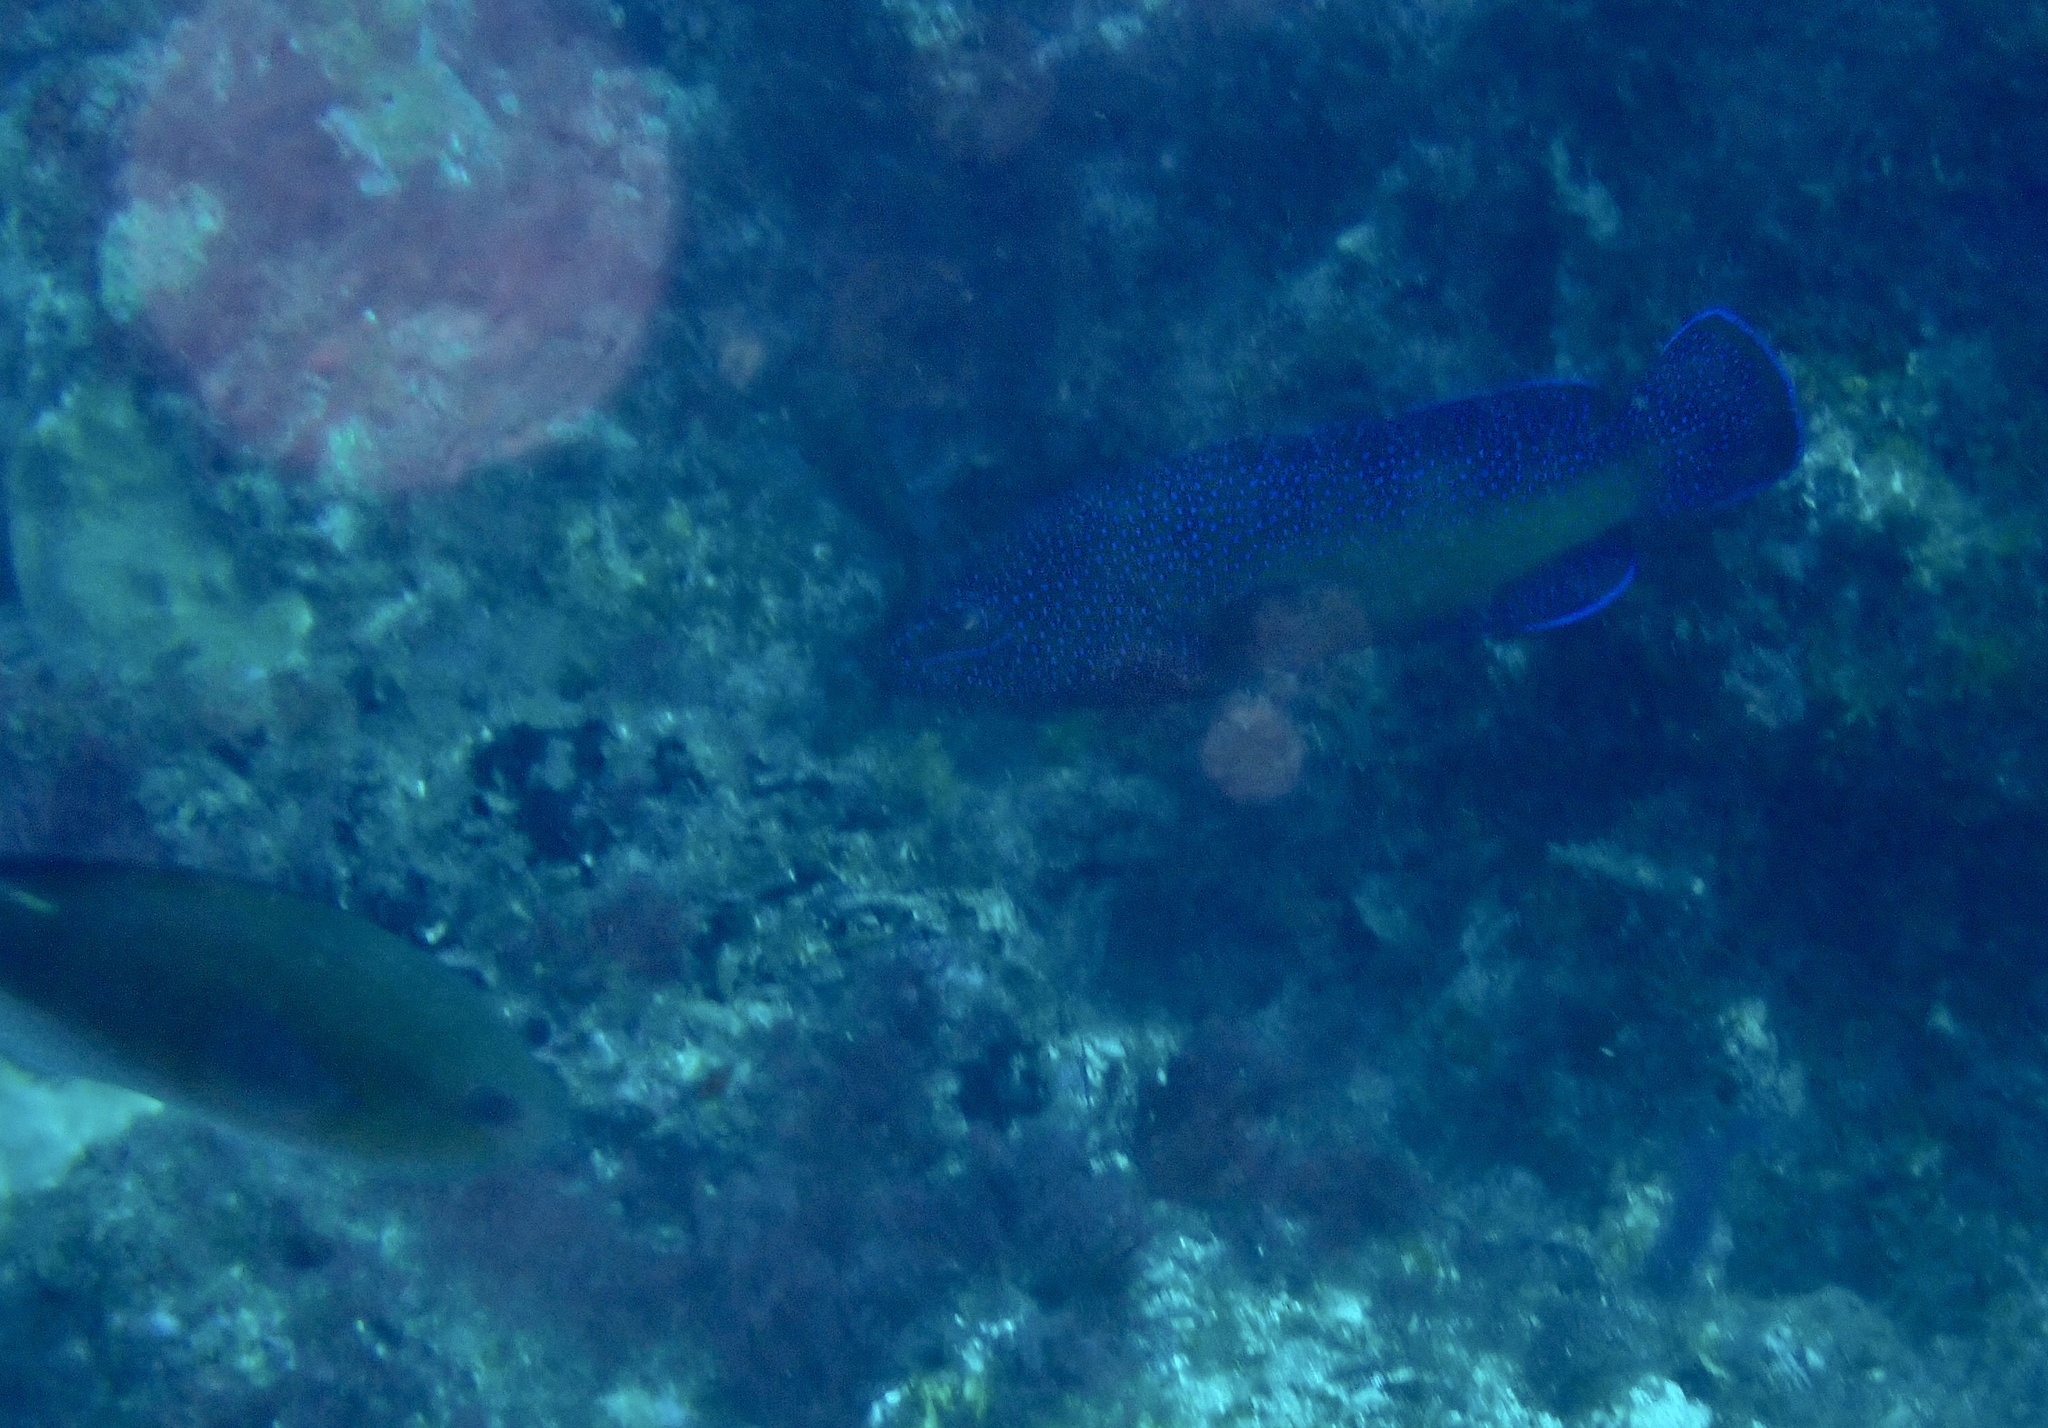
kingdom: Animalia
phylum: Chordata
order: Perciformes
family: Serranidae
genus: Cephalopholis
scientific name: Cephalopholis taeniops
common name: African hind
